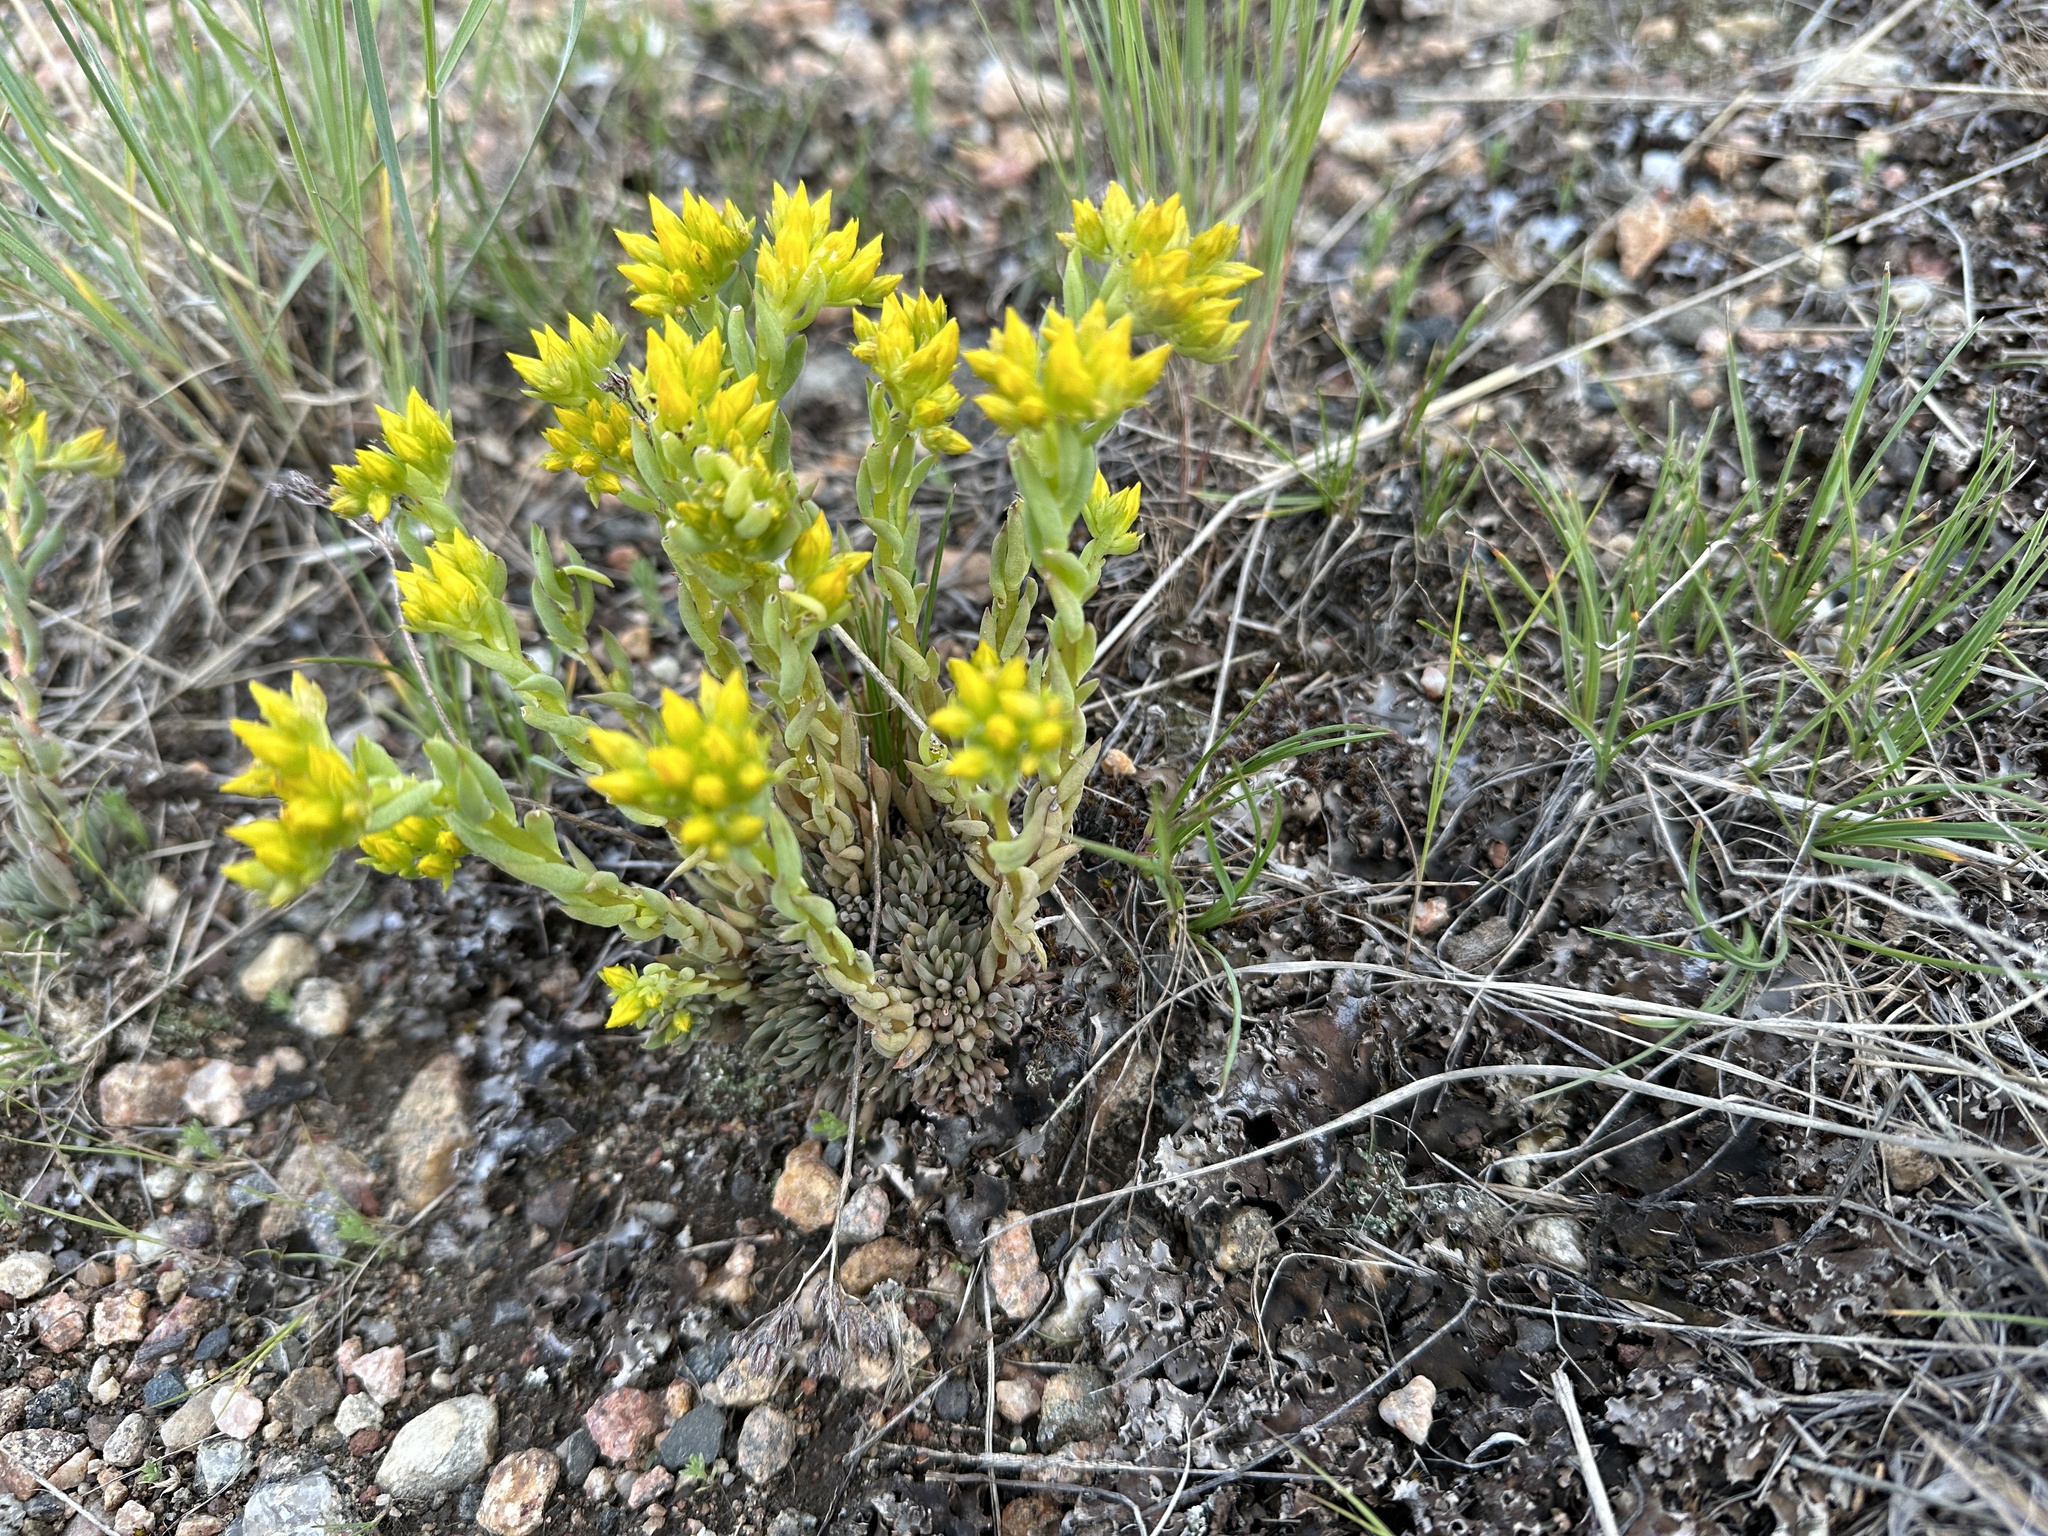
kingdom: Plantae
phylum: Tracheophyta
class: Magnoliopsida
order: Saxifragales
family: Crassulaceae
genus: Sedum
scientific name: Sedum lanceolatum
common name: Common stonecrop
